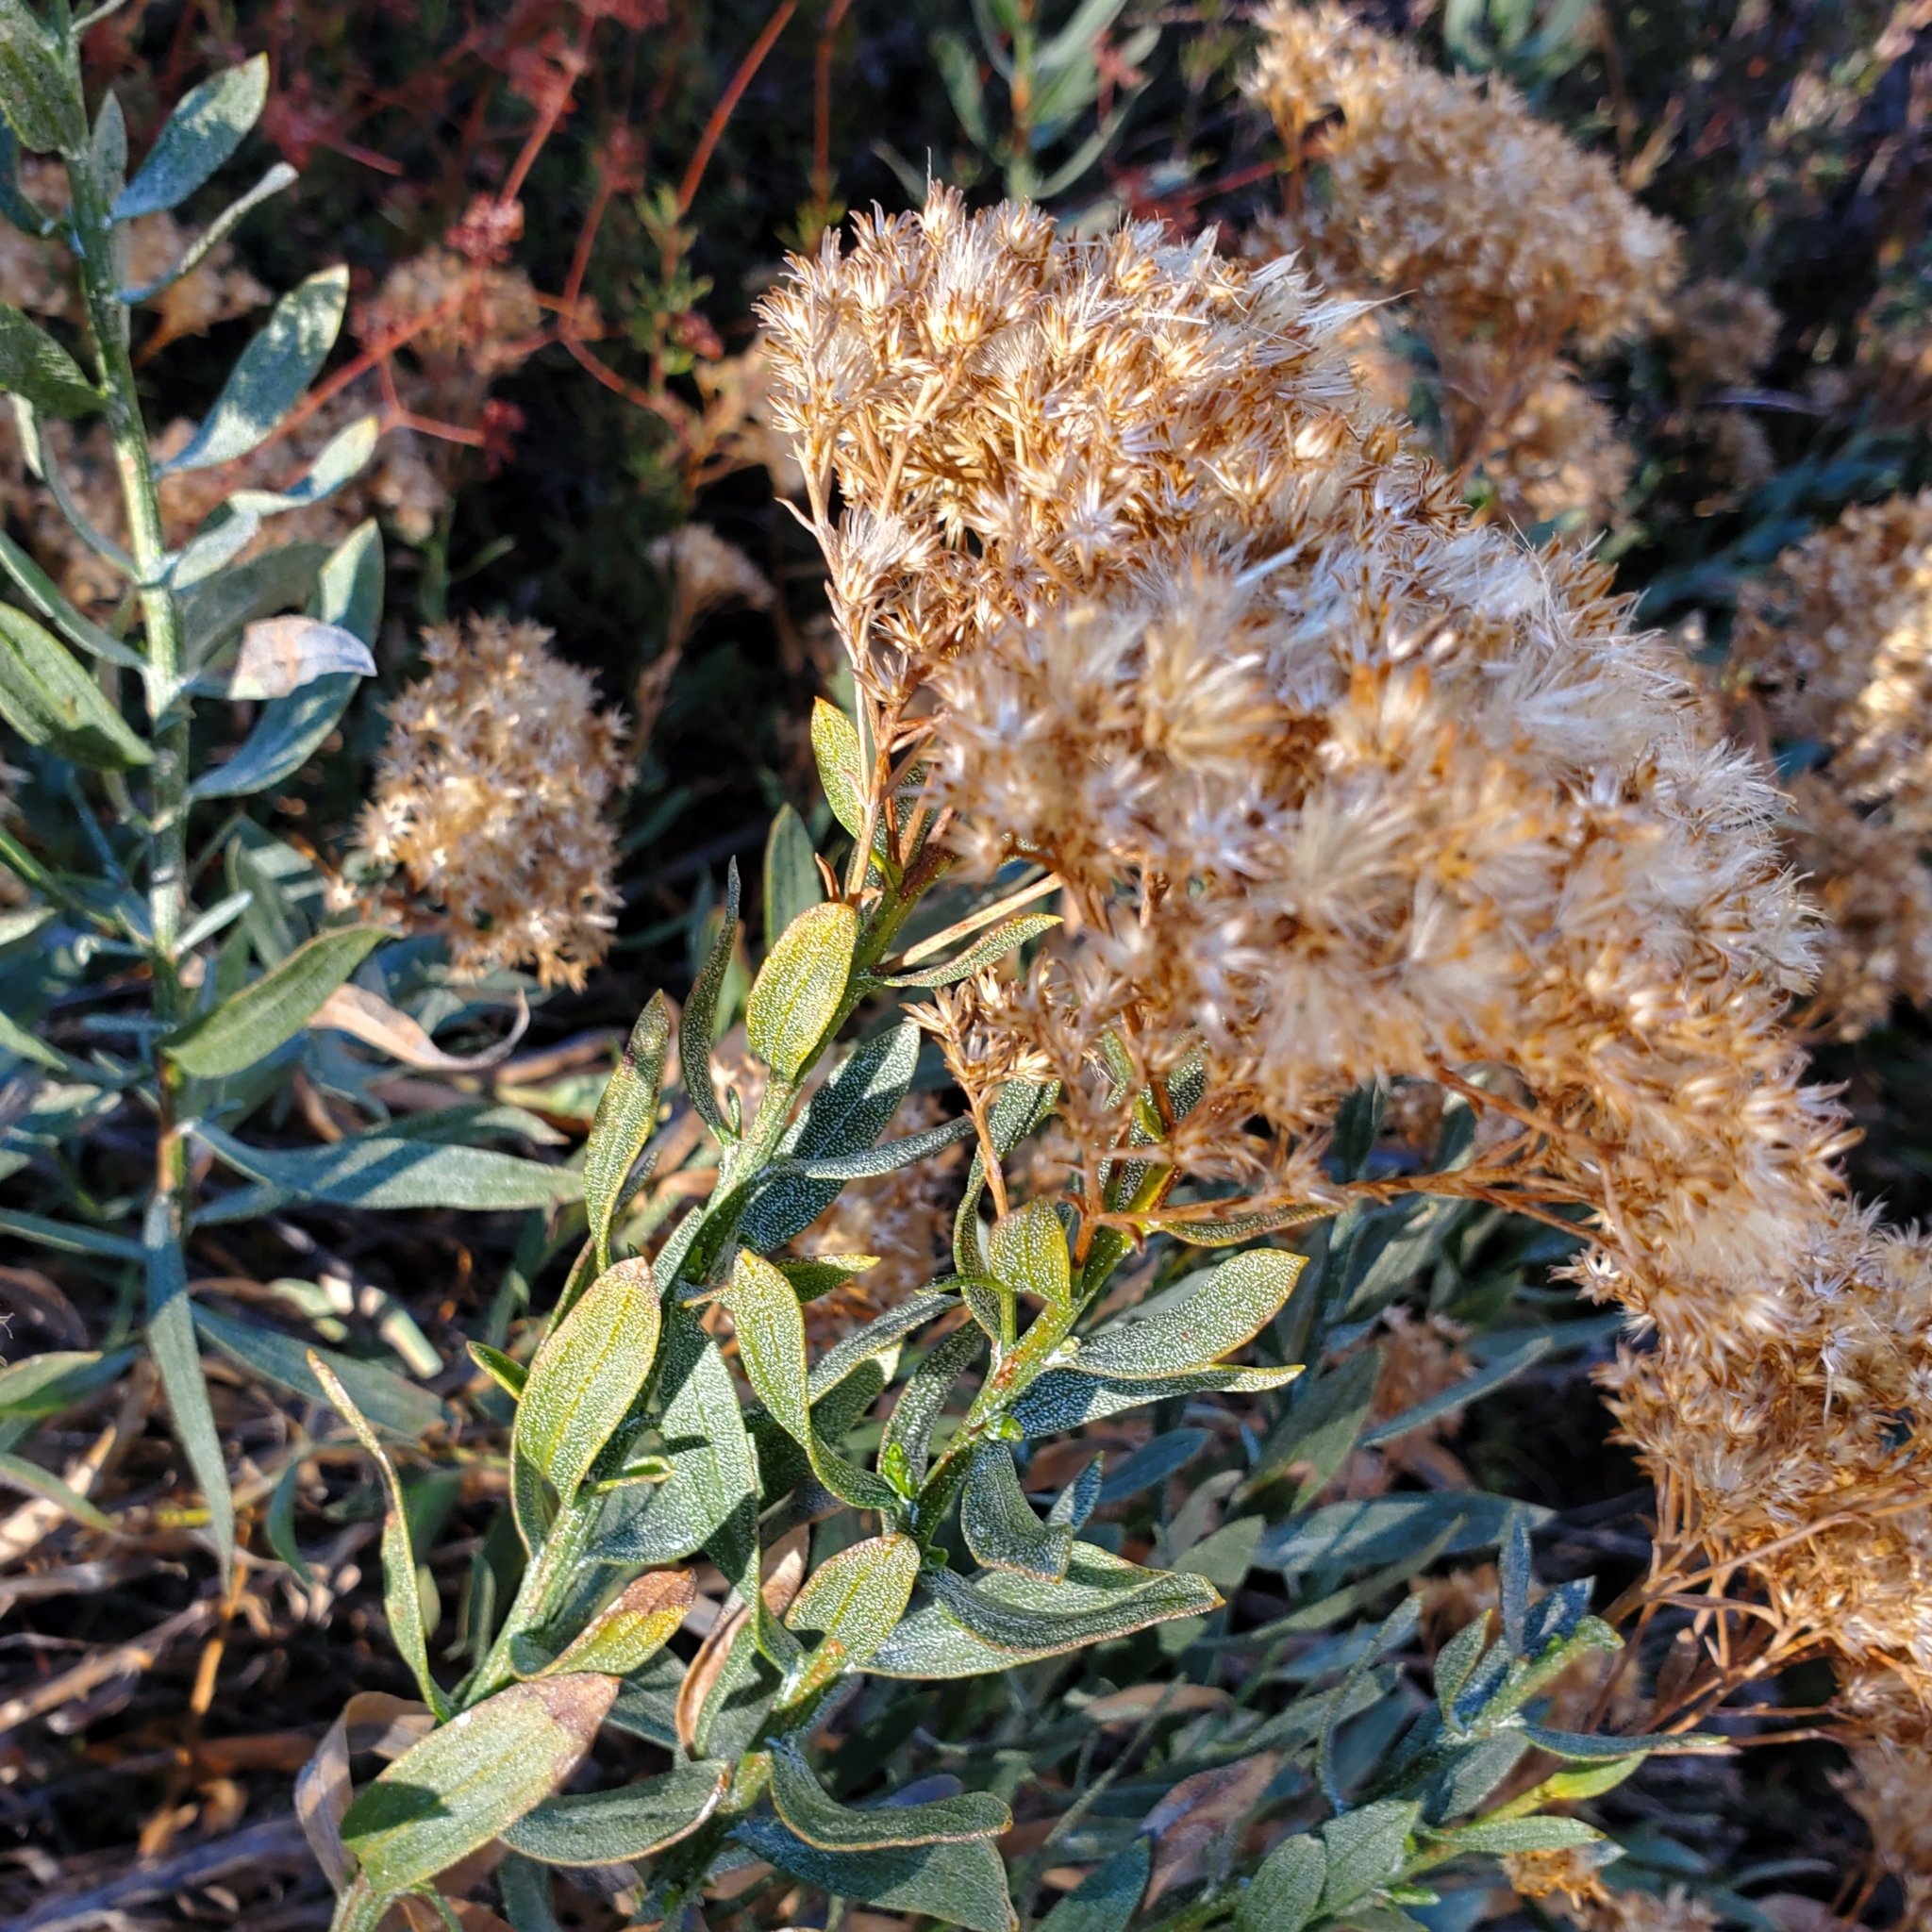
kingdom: Plantae
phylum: Tracheophyta
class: Magnoliopsida
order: Asterales
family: Asteraceae
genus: Ericameria
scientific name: Ericameria parishii
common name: Parish's goldenbush
